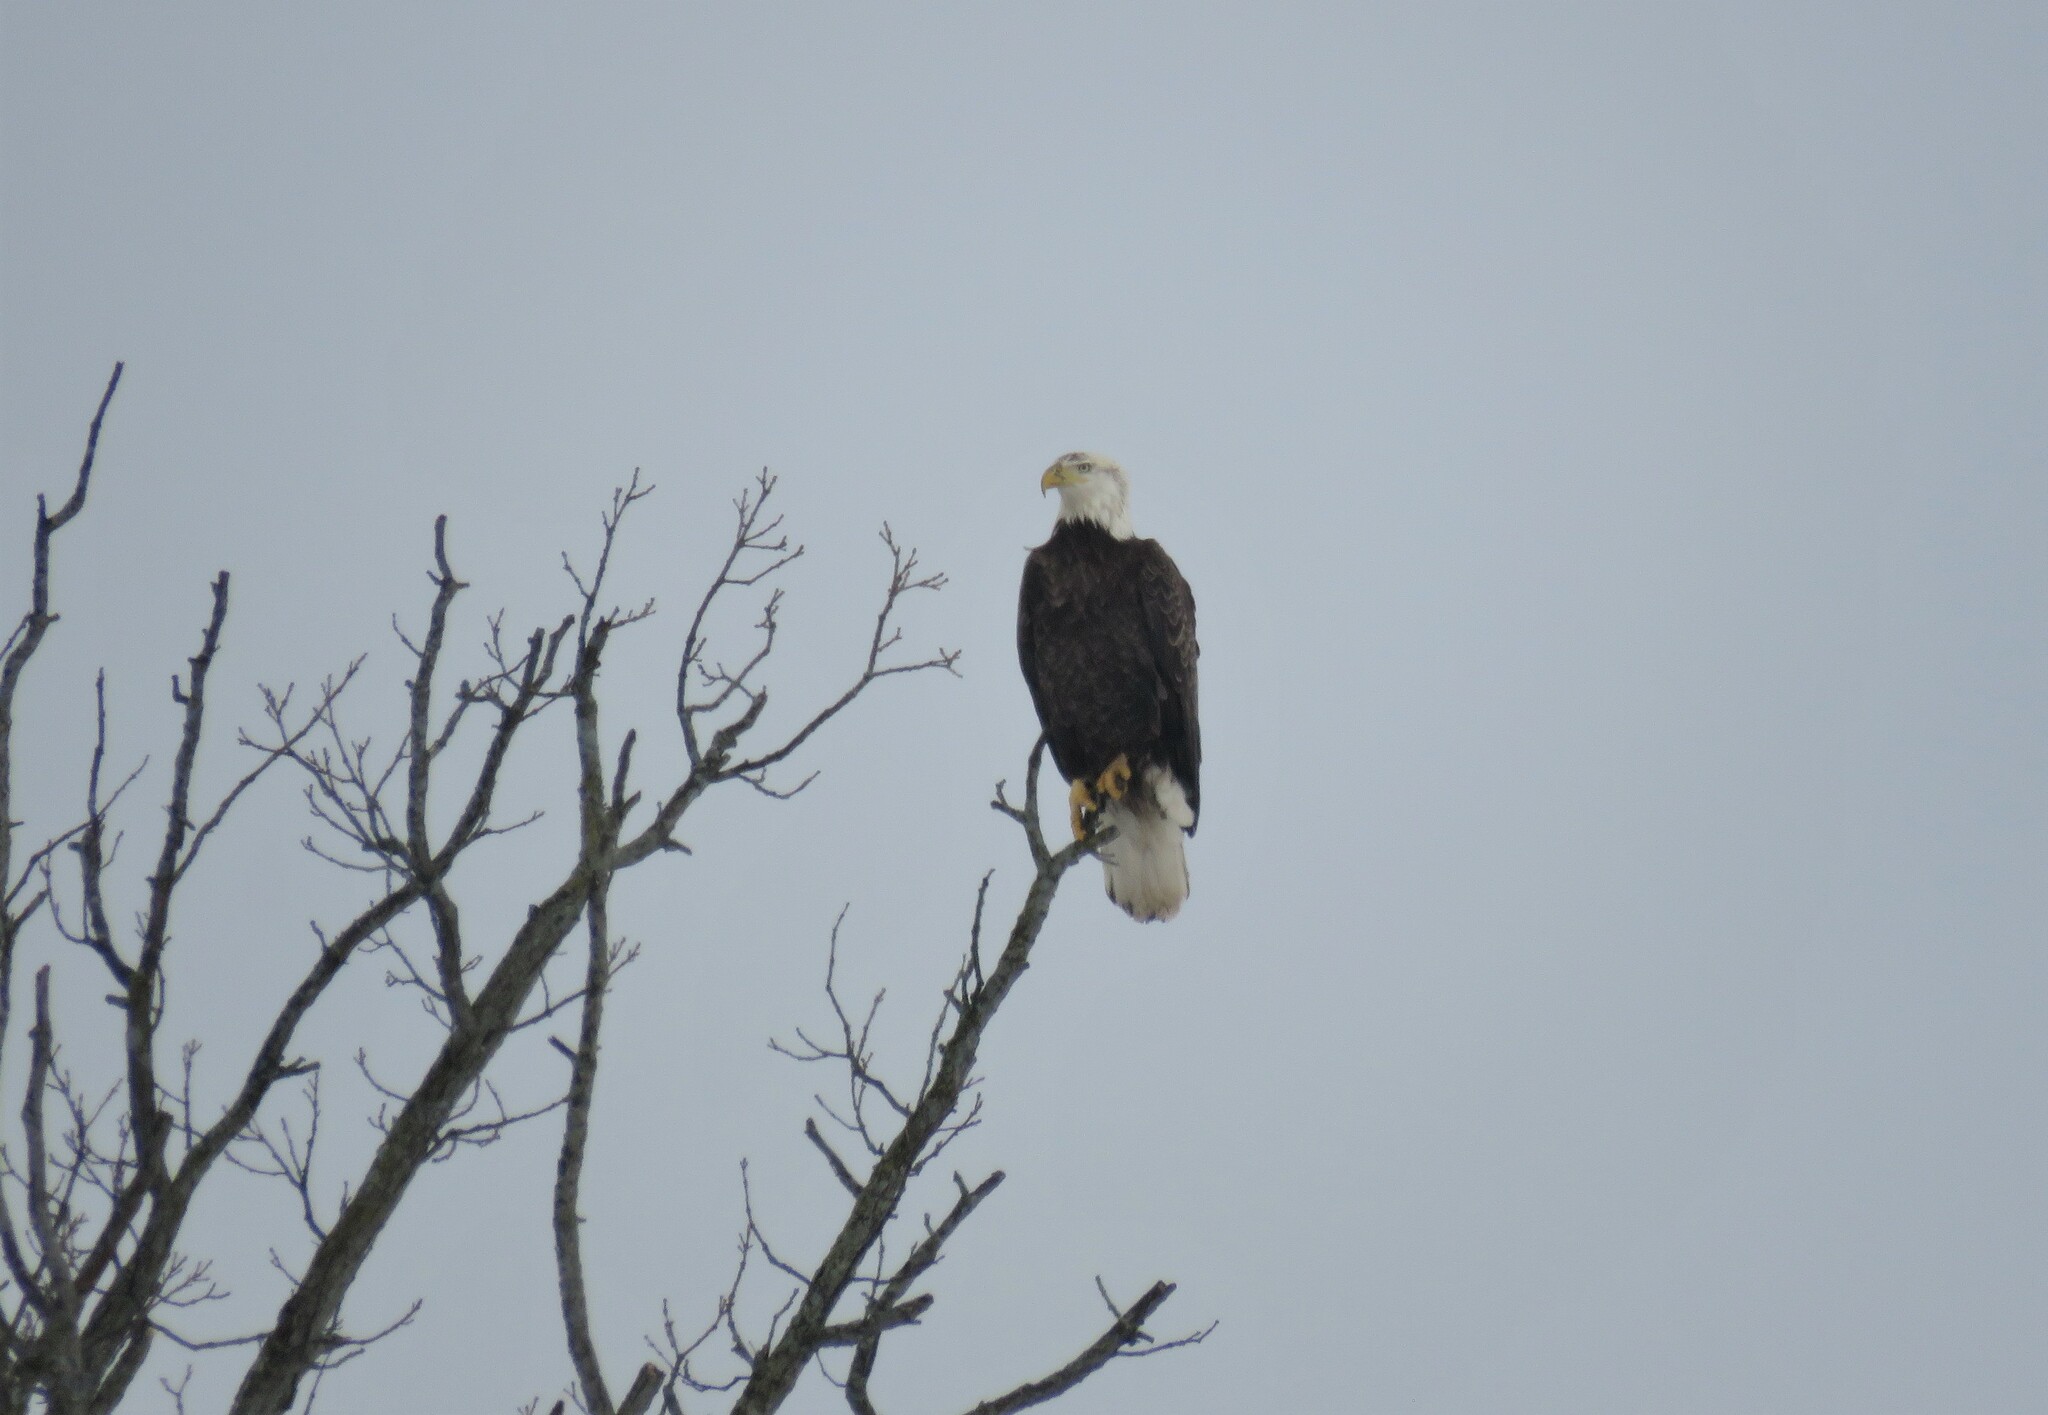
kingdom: Animalia
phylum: Chordata
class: Aves
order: Accipitriformes
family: Accipitridae
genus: Haliaeetus
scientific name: Haliaeetus leucocephalus
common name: Bald eagle
